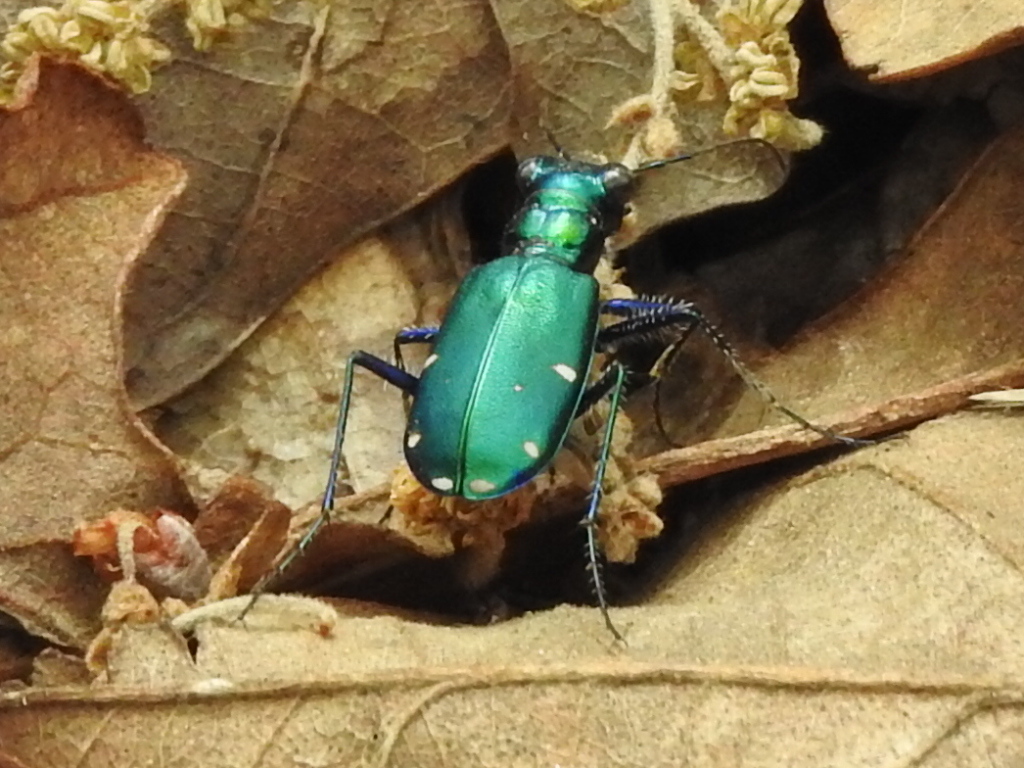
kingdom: Animalia
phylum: Arthropoda
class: Insecta
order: Coleoptera
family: Carabidae
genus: Cicindela
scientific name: Cicindela sexguttata
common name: Six-spotted tiger beetle
